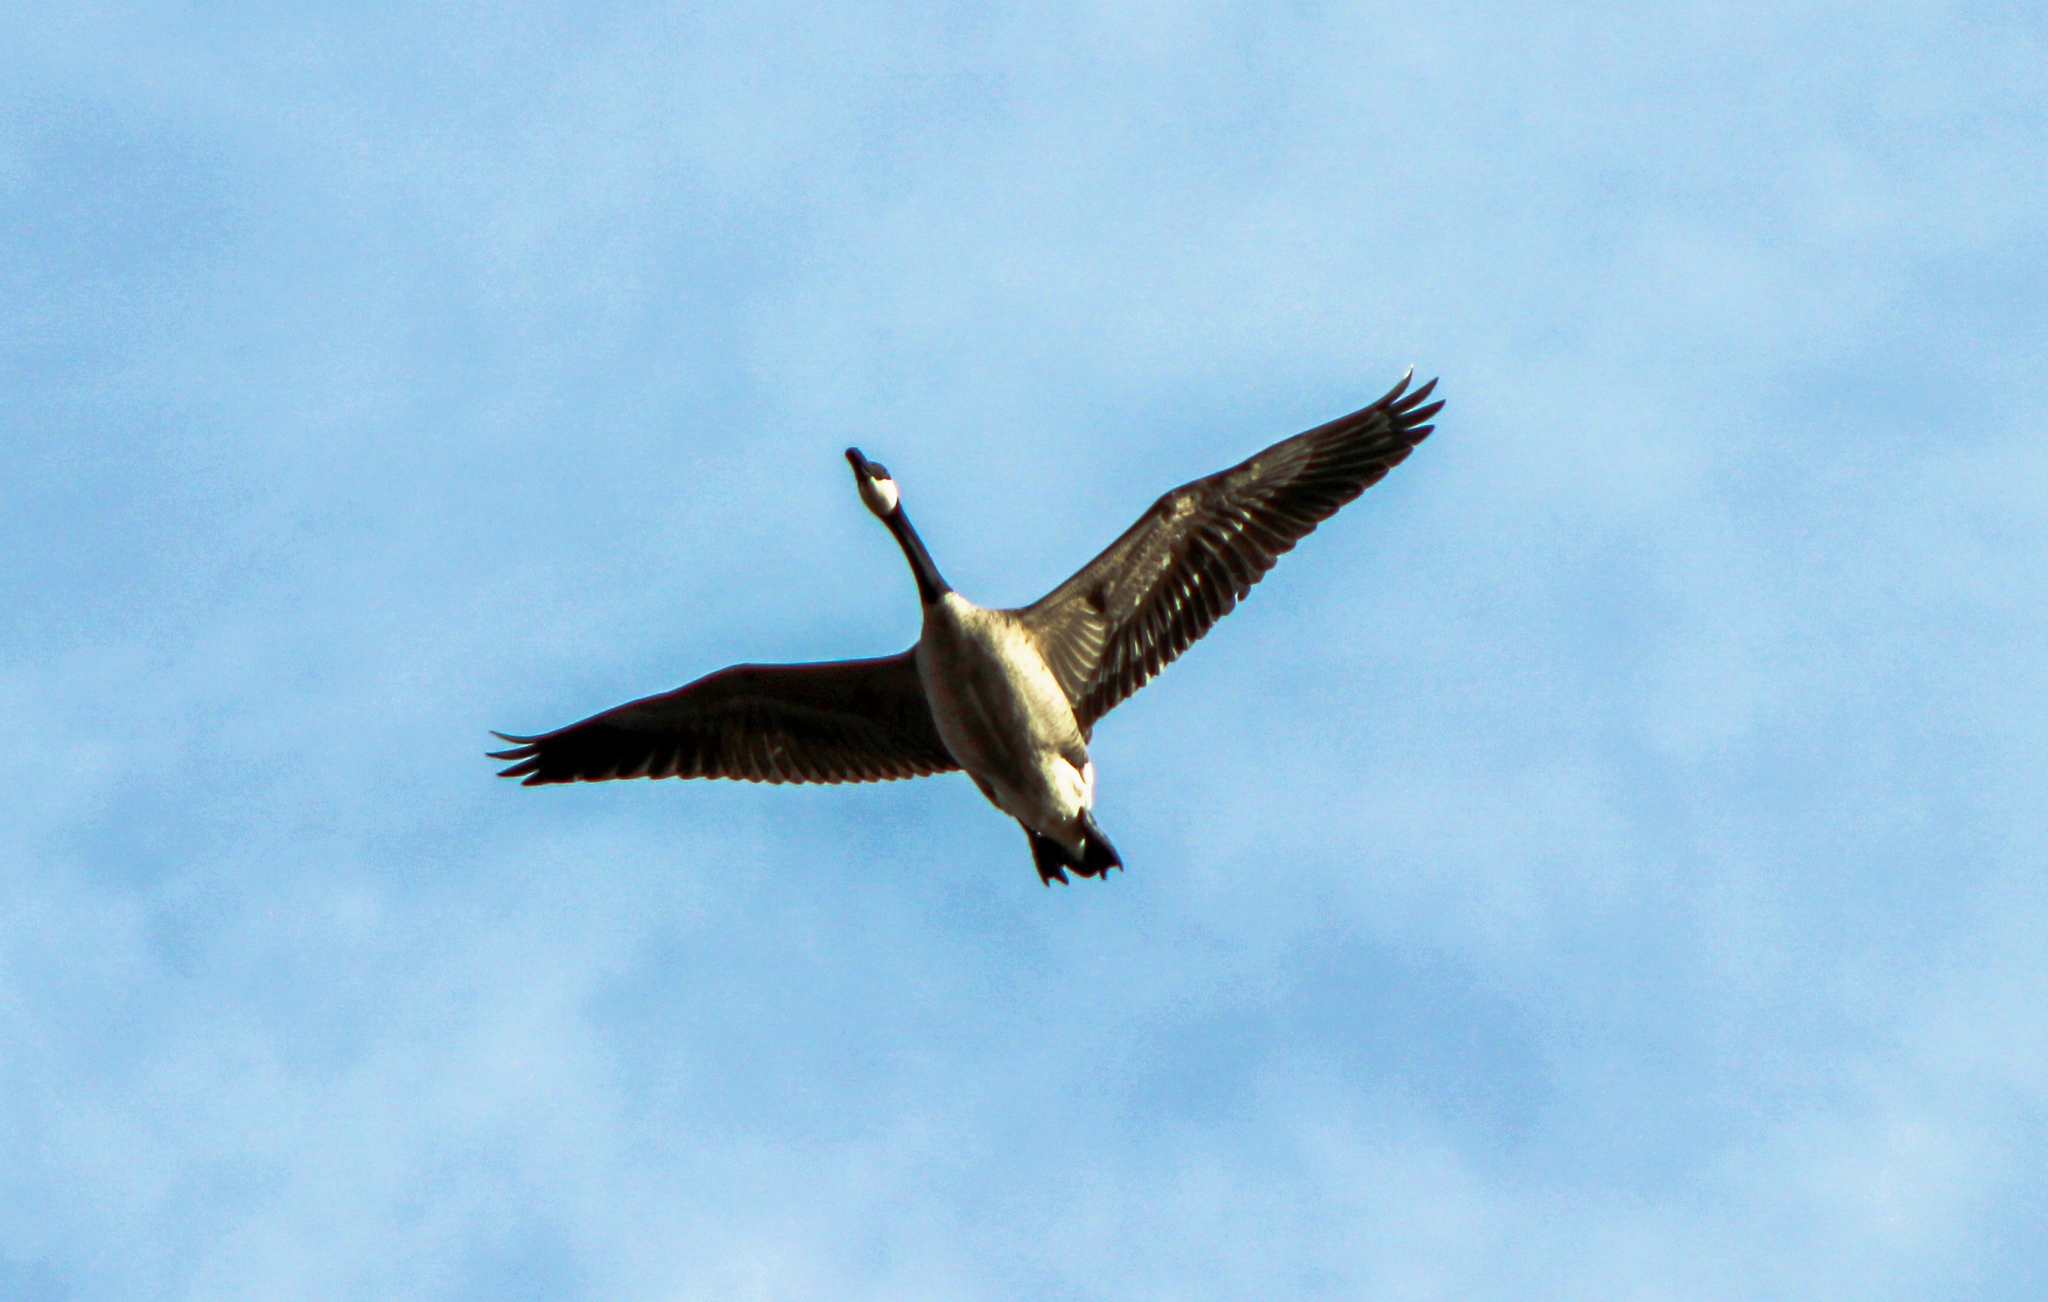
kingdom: Animalia
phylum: Chordata
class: Aves
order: Anseriformes
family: Anatidae
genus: Branta
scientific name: Branta canadensis
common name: Canada goose
